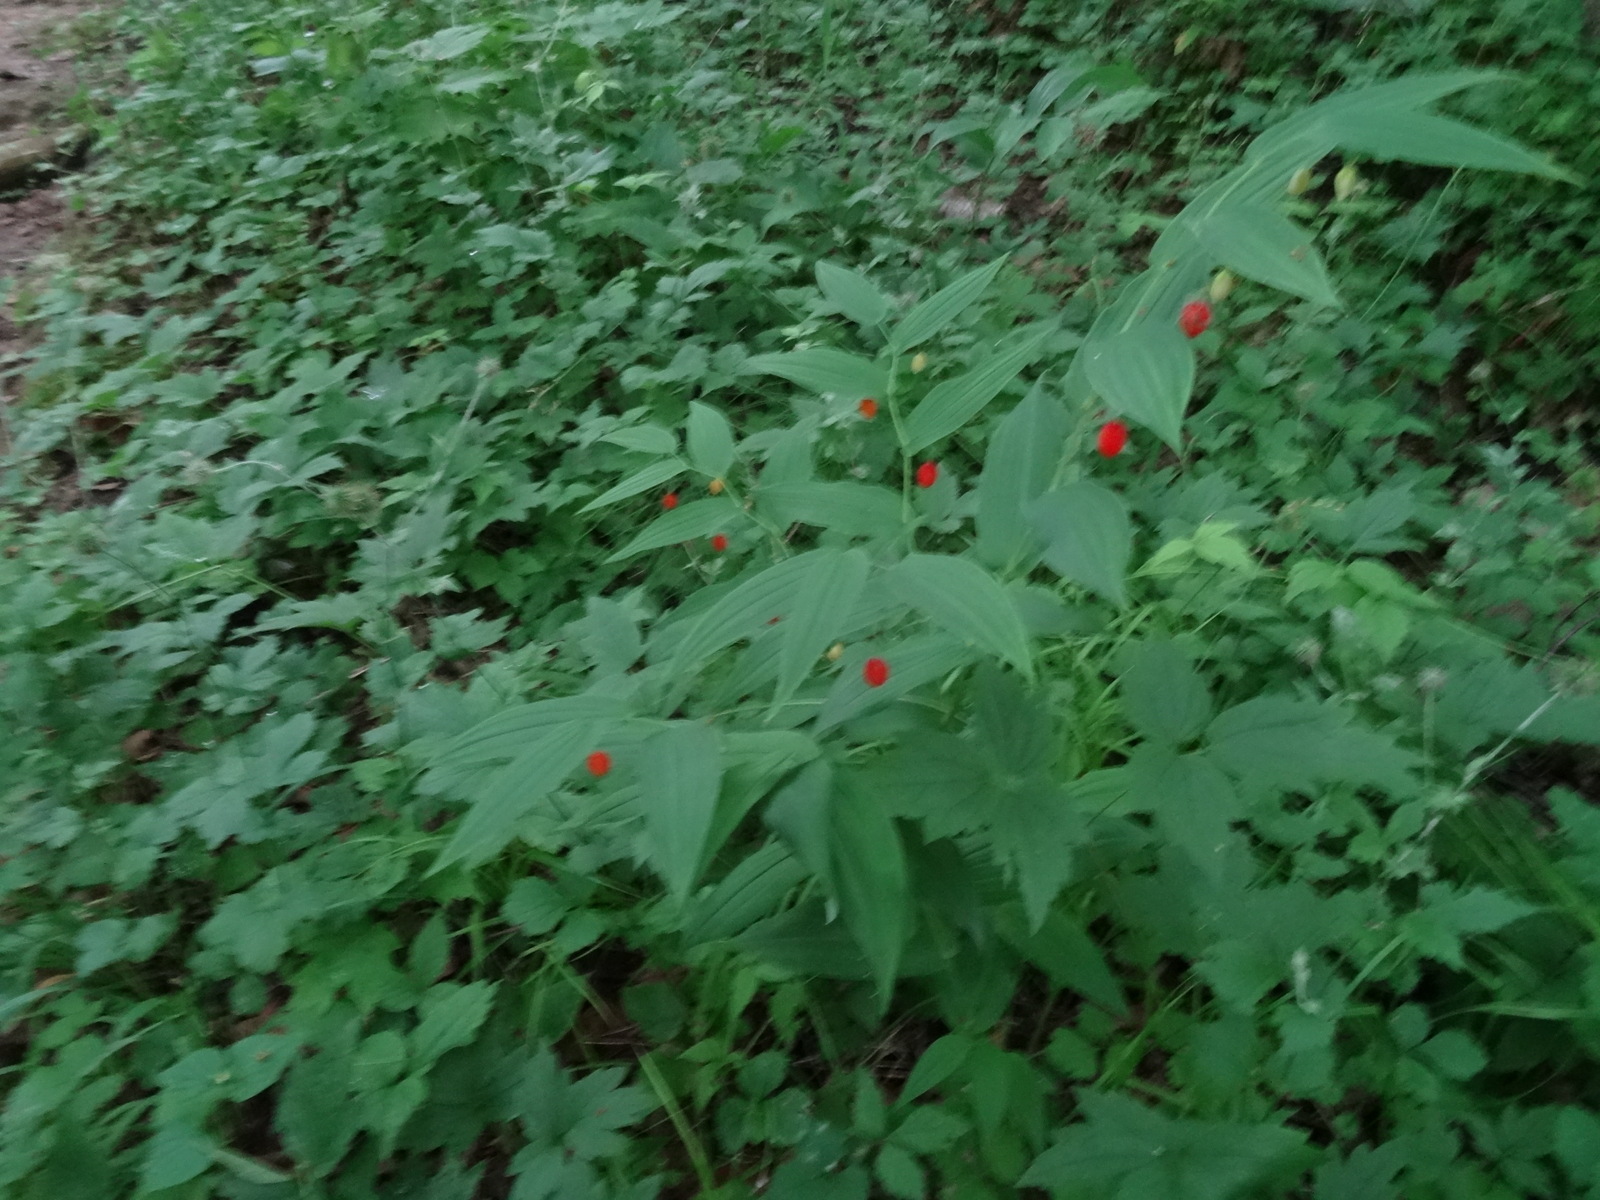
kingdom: Plantae
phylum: Tracheophyta
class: Liliopsida
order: Liliales
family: Liliaceae
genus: Streptopus
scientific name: Streptopus amplexifolius
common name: Clasp twisted stalk
